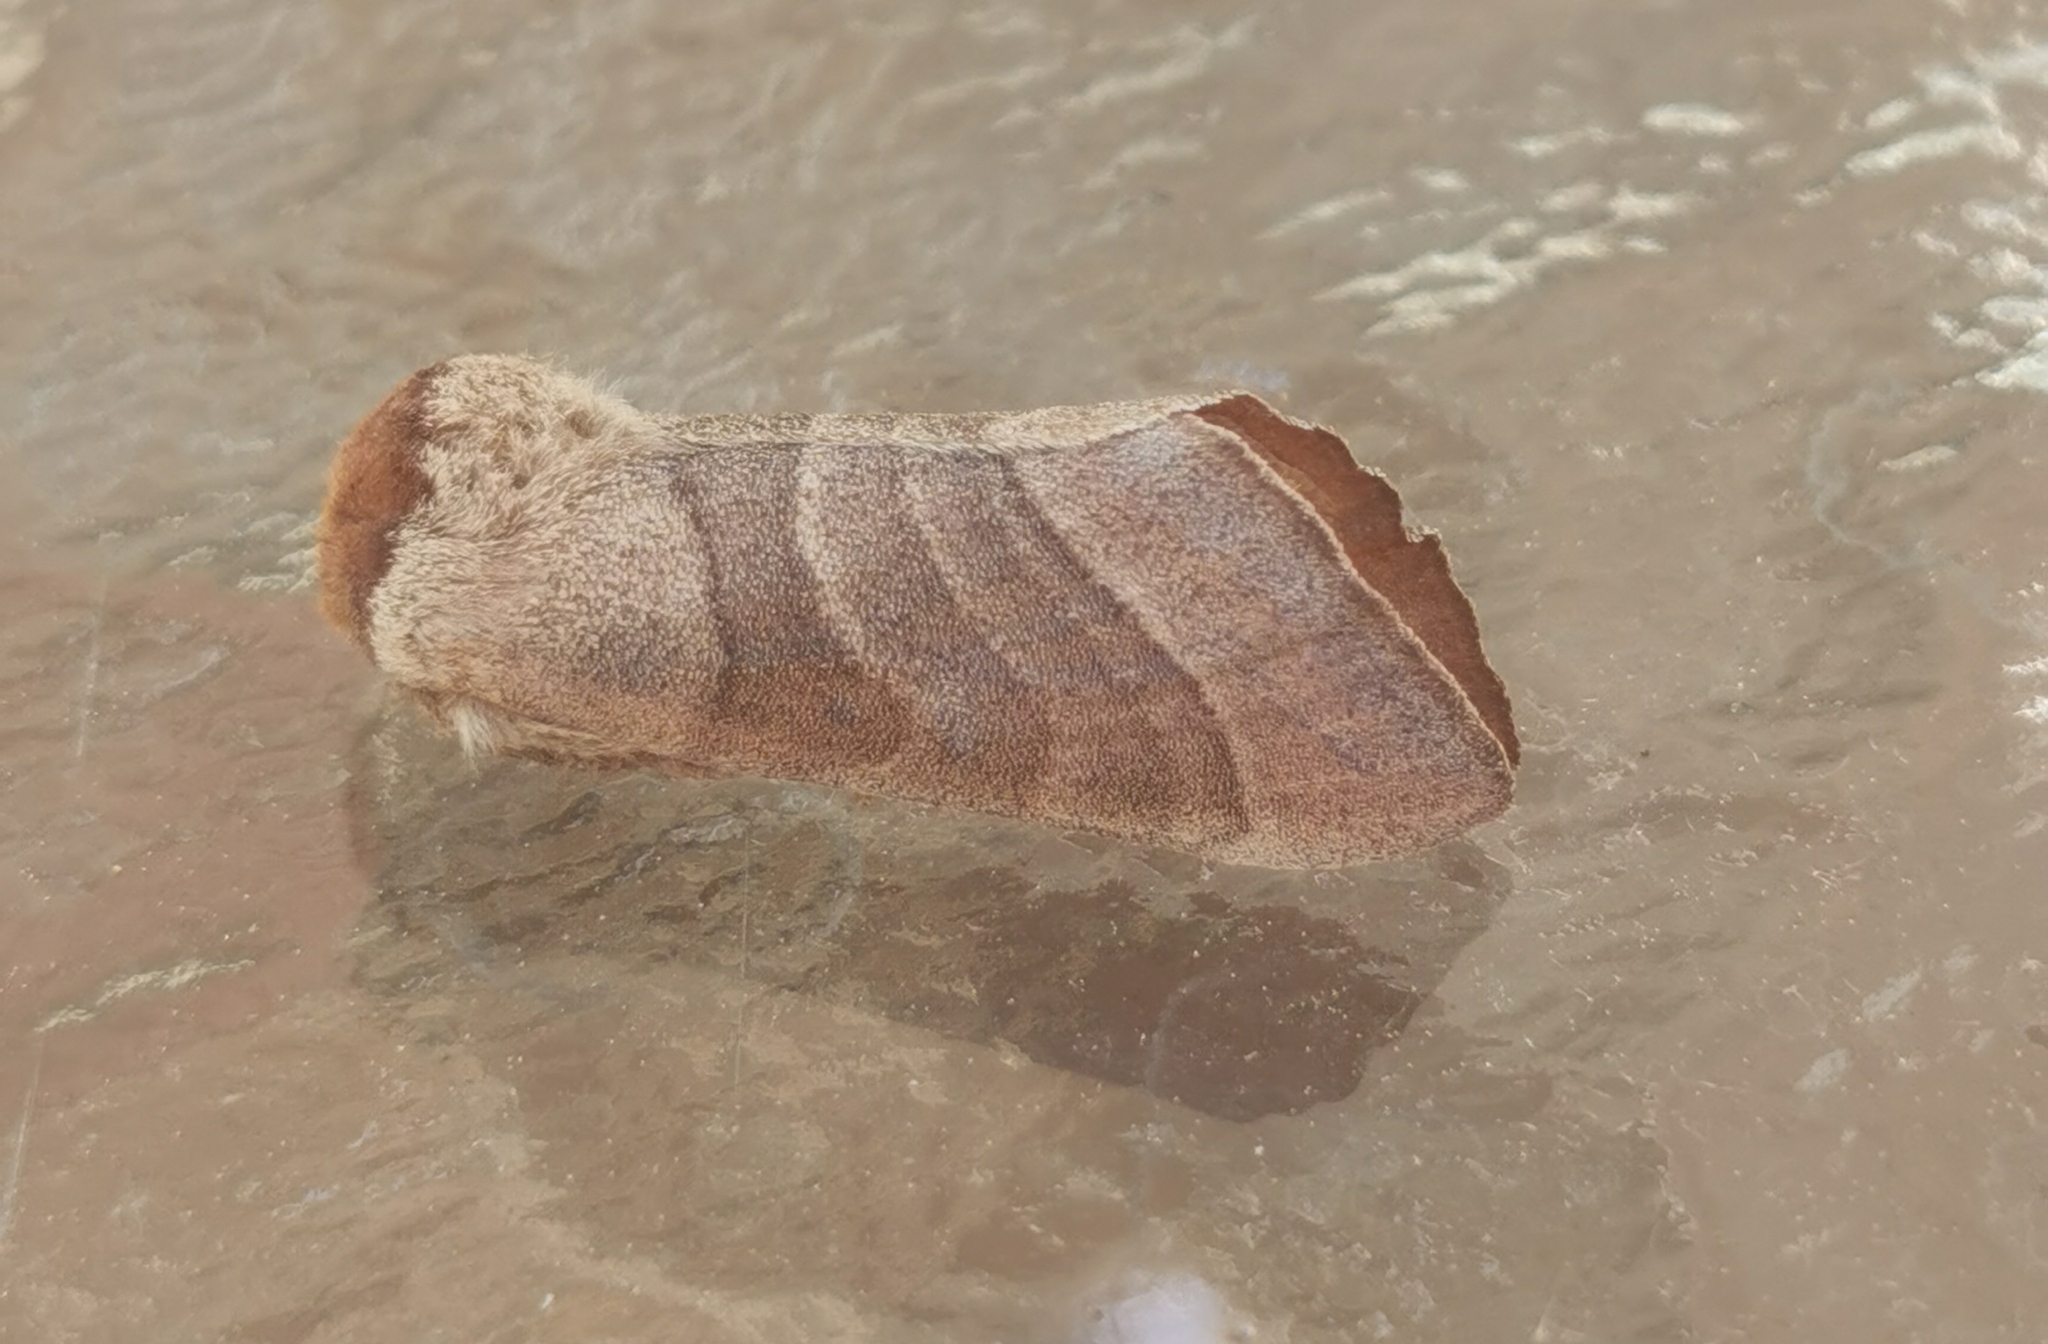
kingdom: Animalia
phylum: Arthropoda
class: Insecta
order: Lepidoptera
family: Notodontidae
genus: Datana
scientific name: Datana integerrima
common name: Walnut caterpillar
